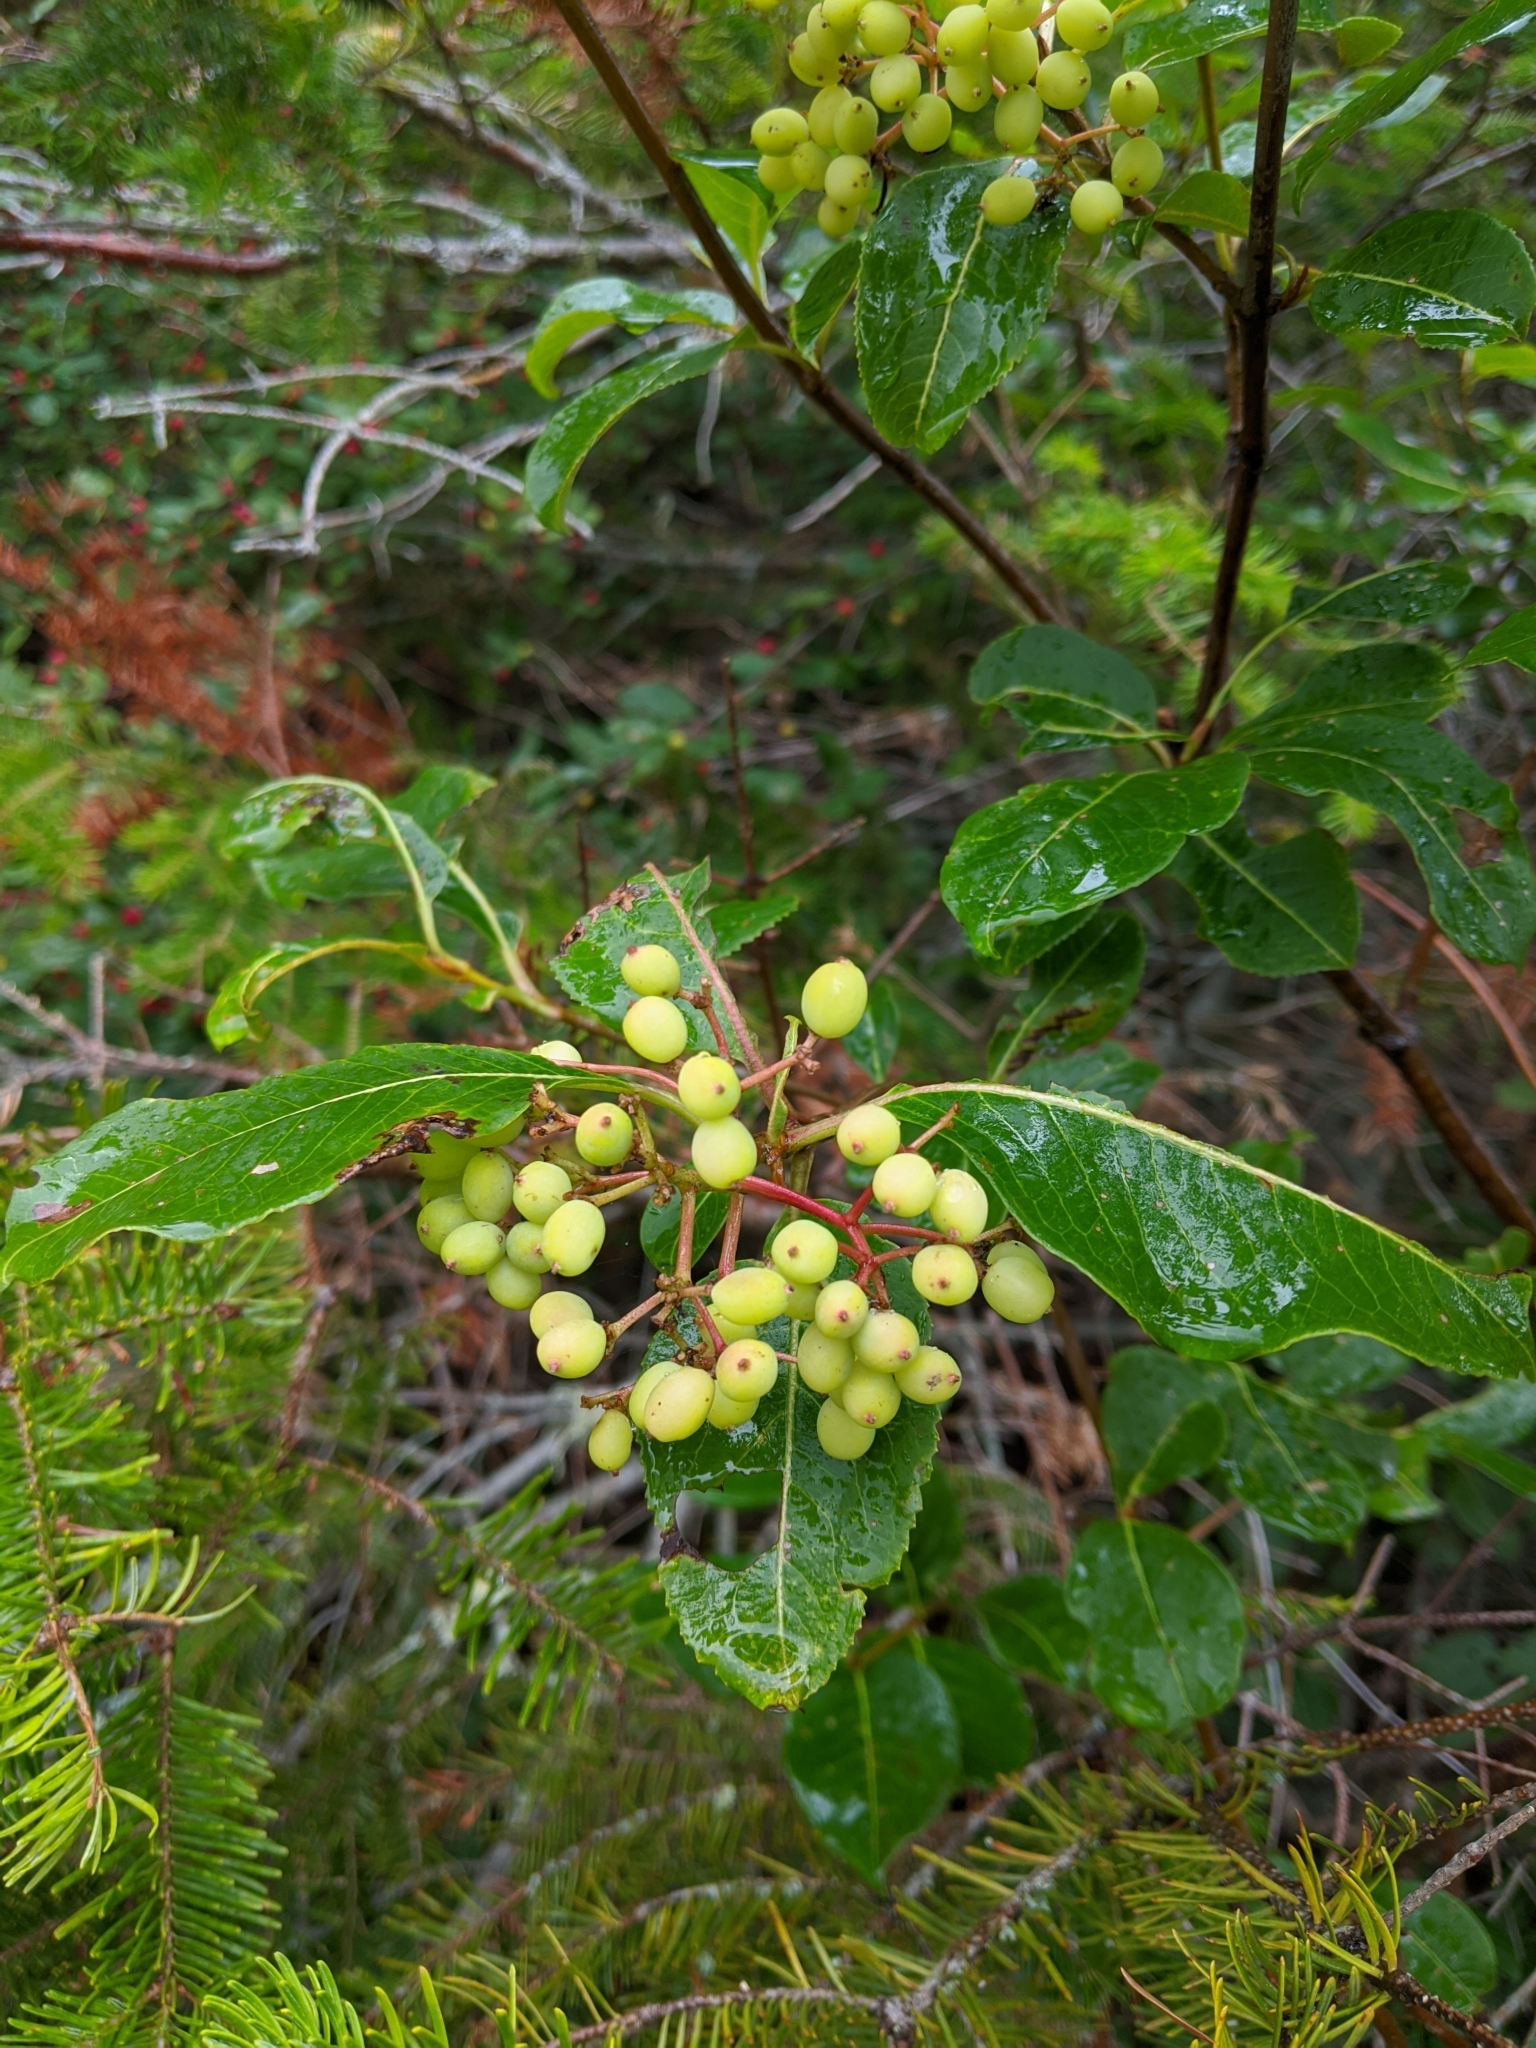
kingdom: Plantae
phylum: Tracheophyta
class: Magnoliopsida
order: Dipsacales
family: Viburnaceae
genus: Viburnum
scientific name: Viburnum cassinoides
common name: Swamp haw
